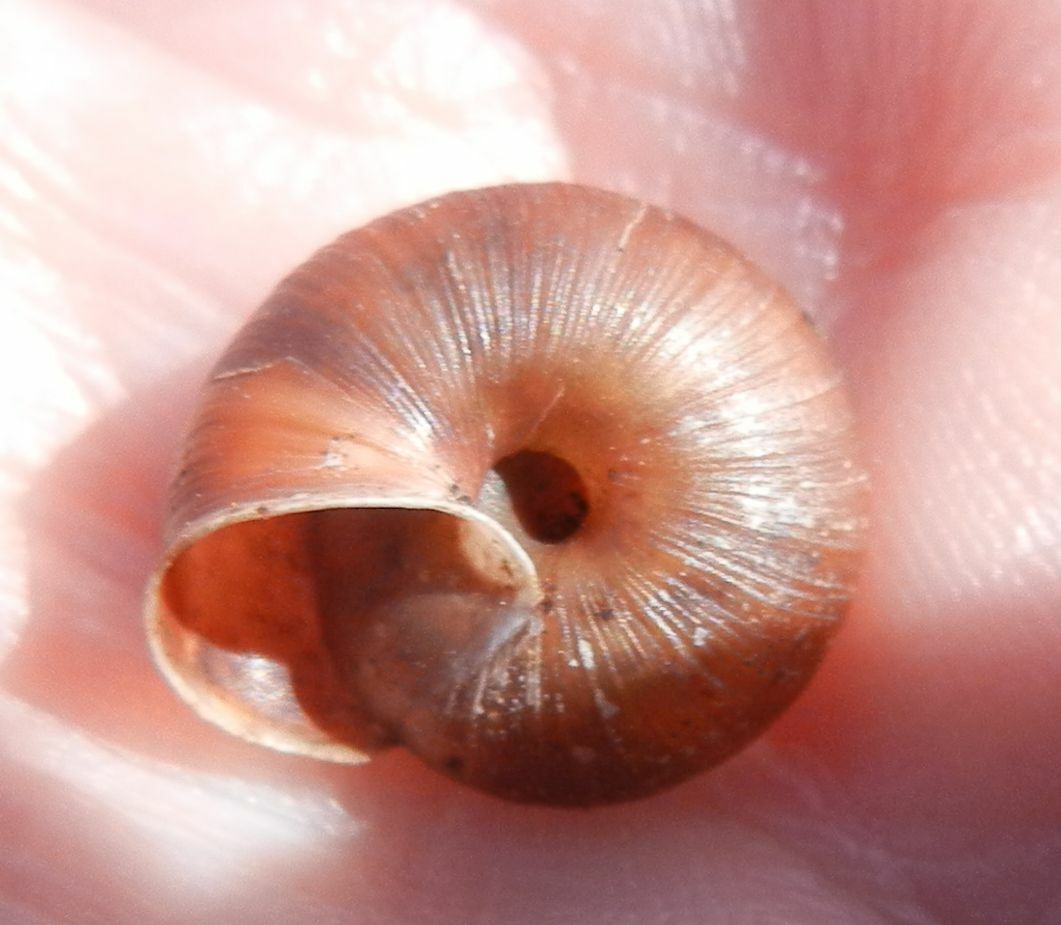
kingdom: Animalia
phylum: Mollusca
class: Gastropoda
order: Stylommatophora
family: Hygromiidae
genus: Trochulus
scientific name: Trochulus striolatus
